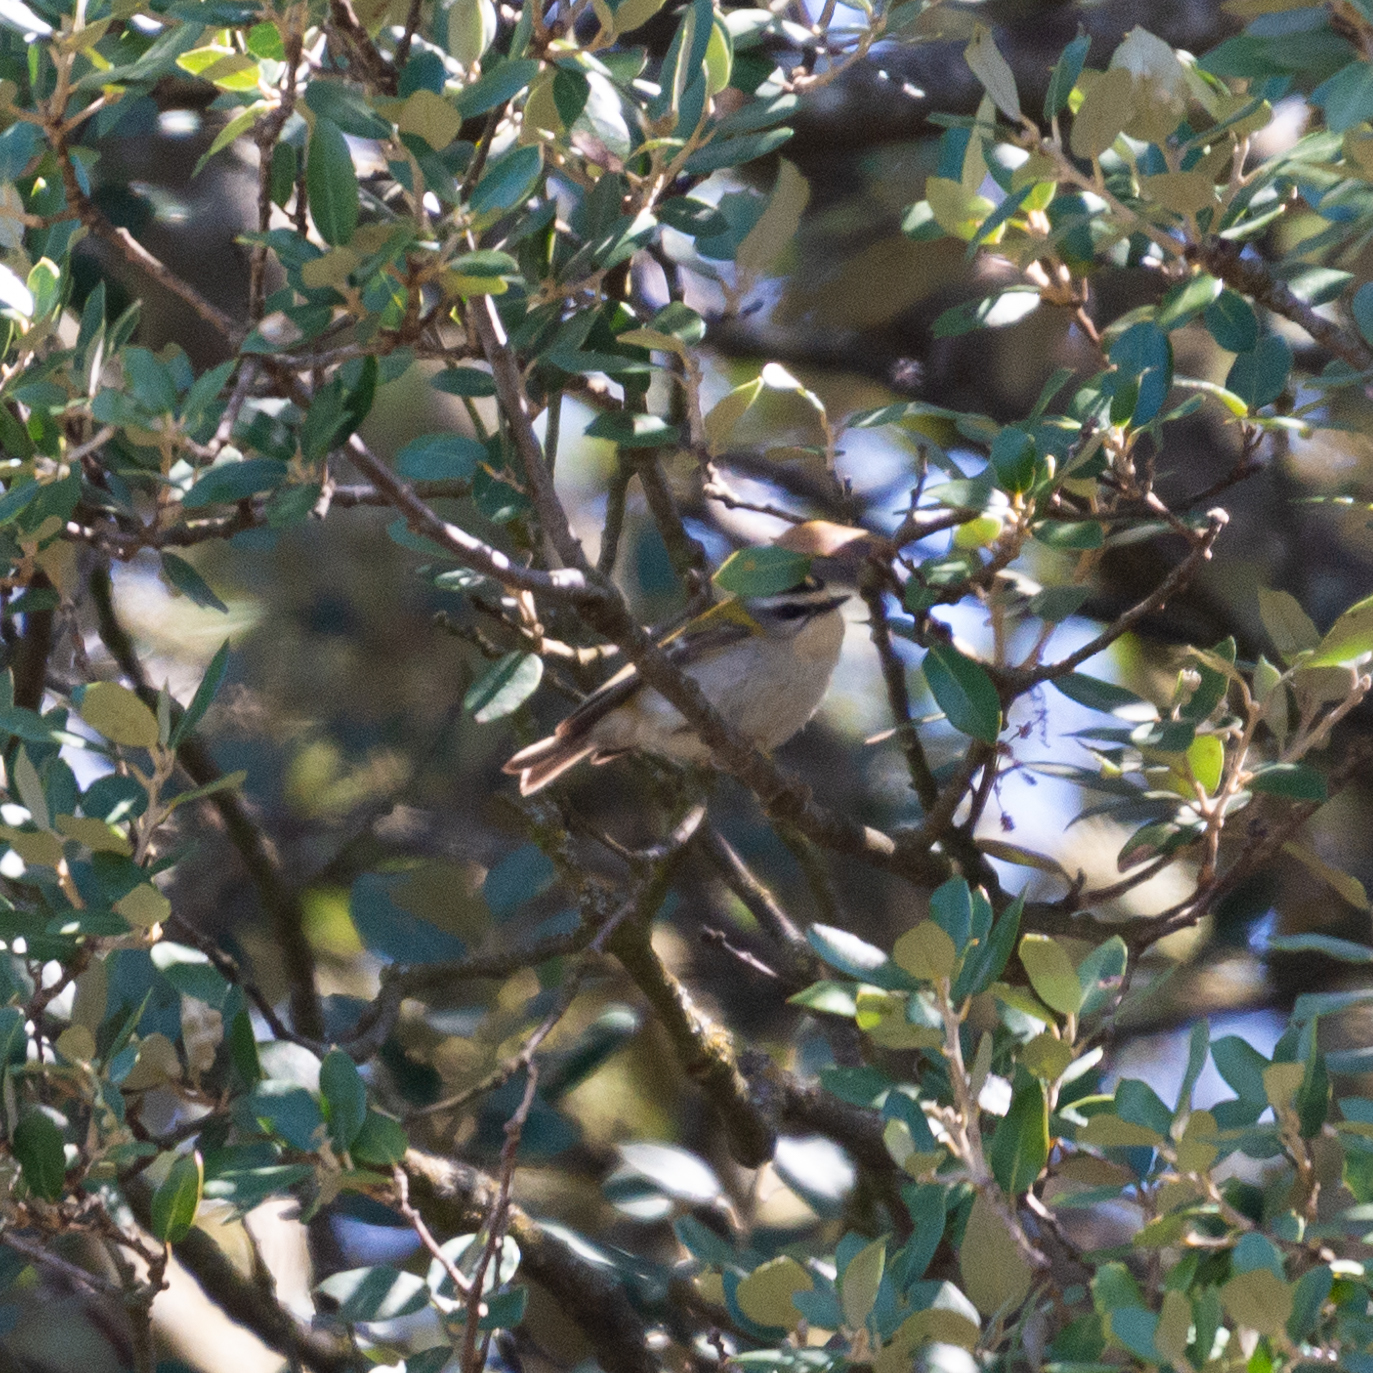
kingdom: Animalia
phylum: Chordata
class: Aves
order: Passeriformes
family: Regulidae
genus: Regulus
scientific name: Regulus ignicapilla
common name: Firecrest
